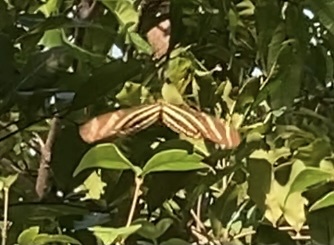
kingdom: Animalia
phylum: Arthropoda
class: Insecta
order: Lepidoptera
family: Nymphalidae
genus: Heliconius
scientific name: Heliconius charithonia
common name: Zebra long wing
